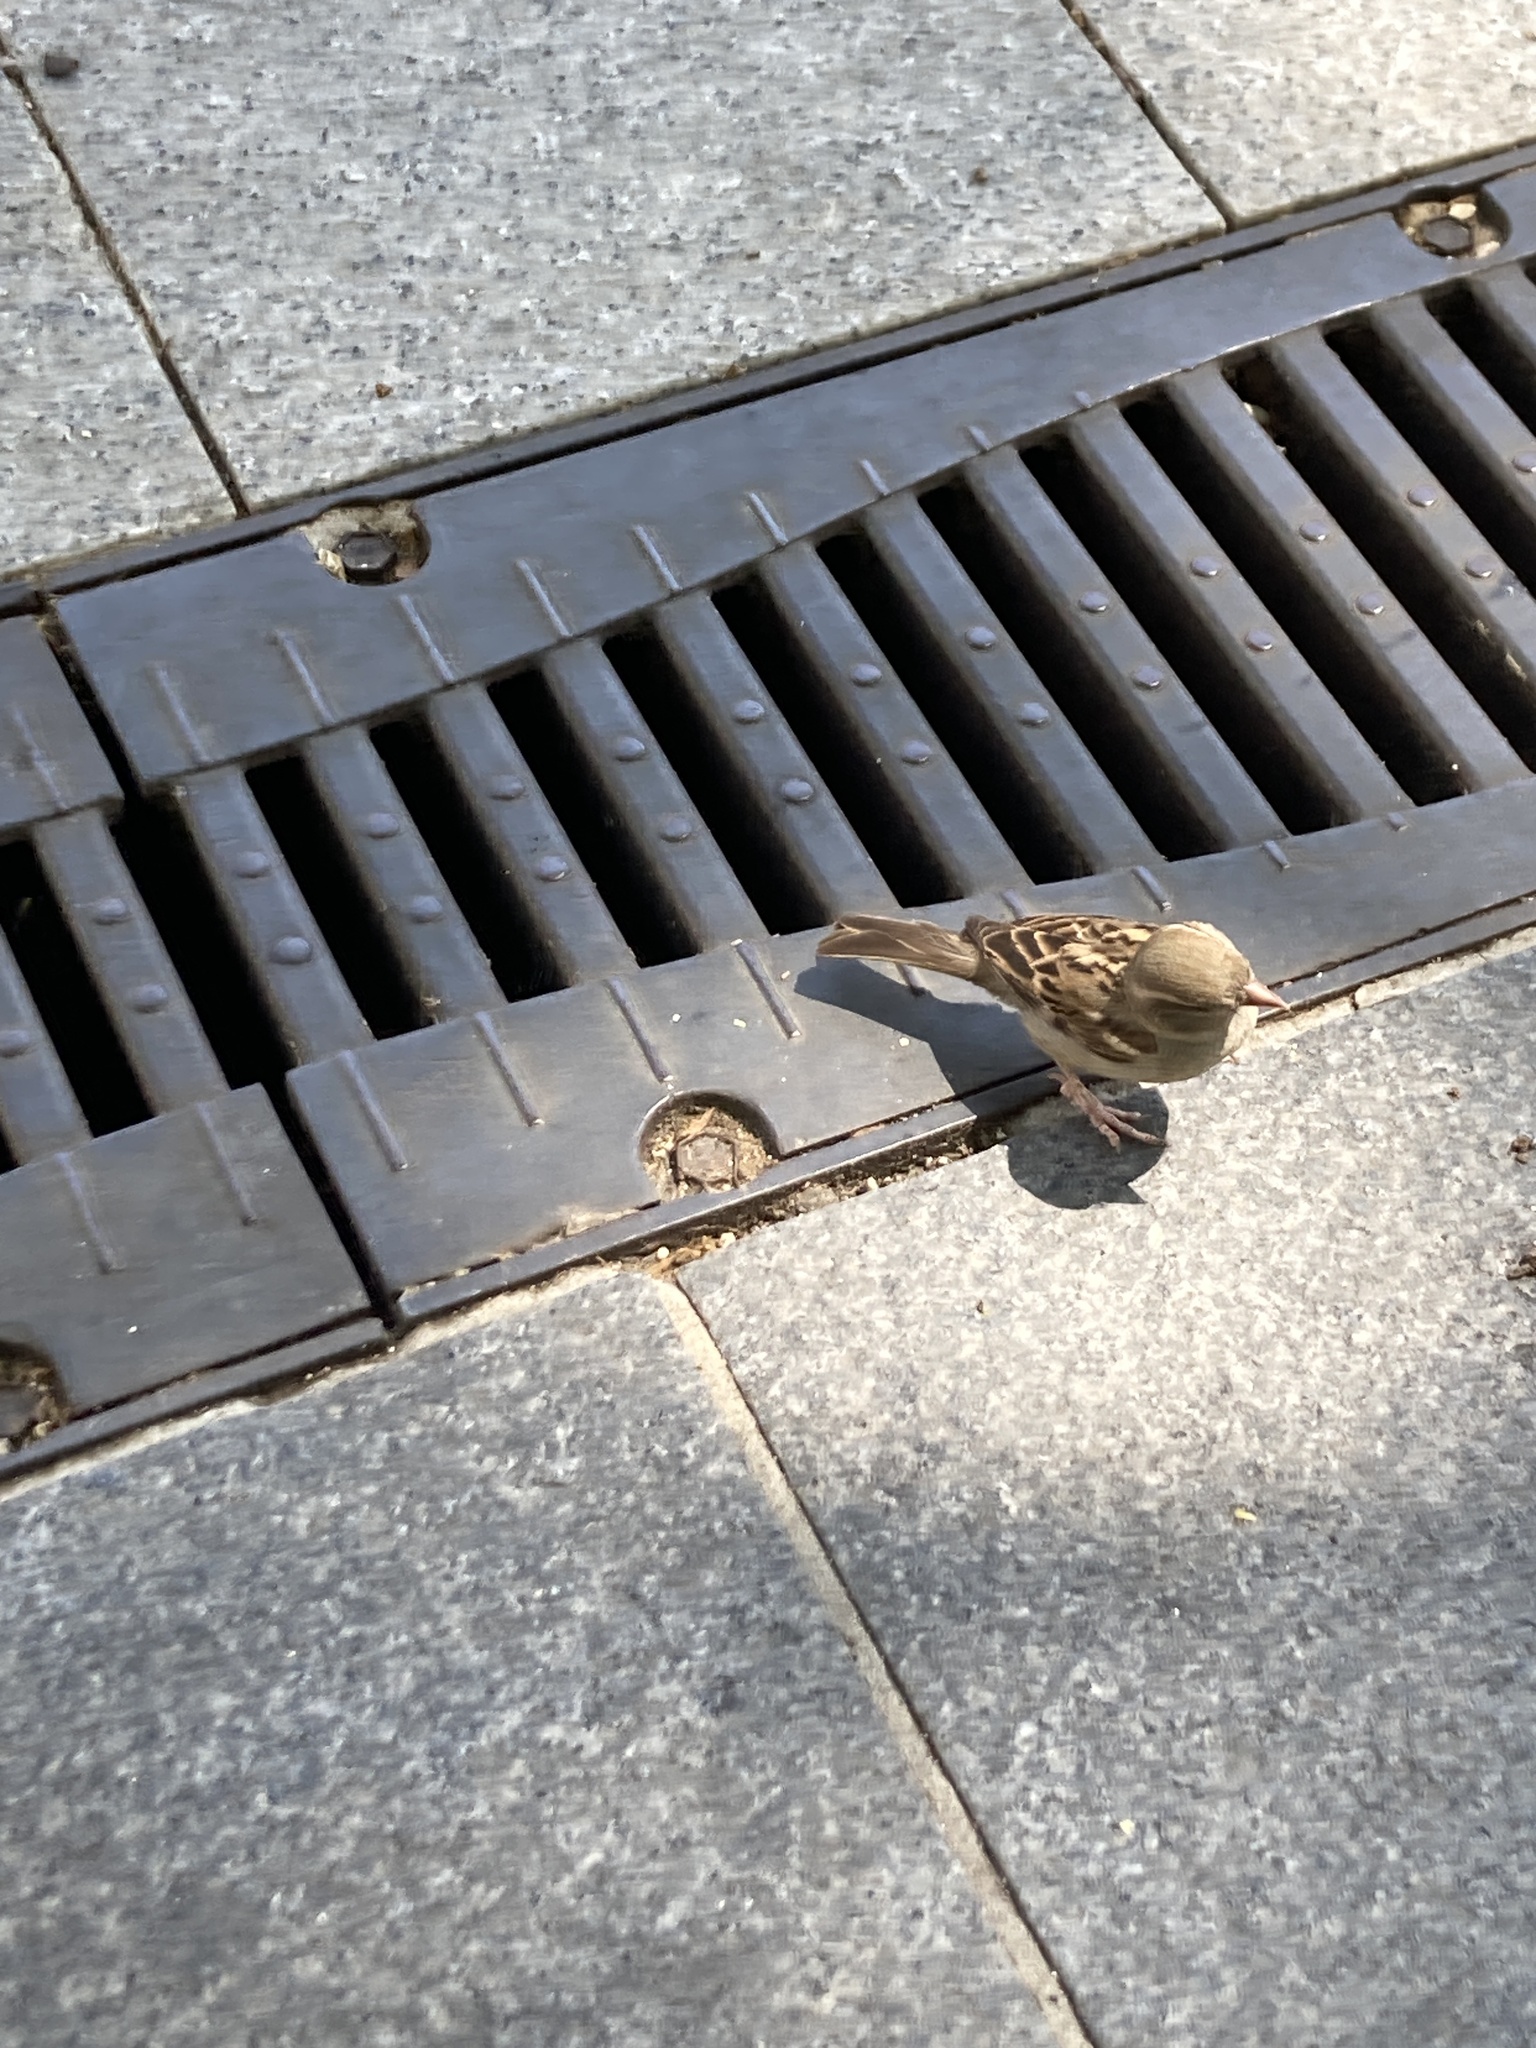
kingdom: Animalia
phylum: Chordata
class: Aves
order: Passeriformes
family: Passeridae
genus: Passer
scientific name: Passer domesticus
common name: House sparrow
